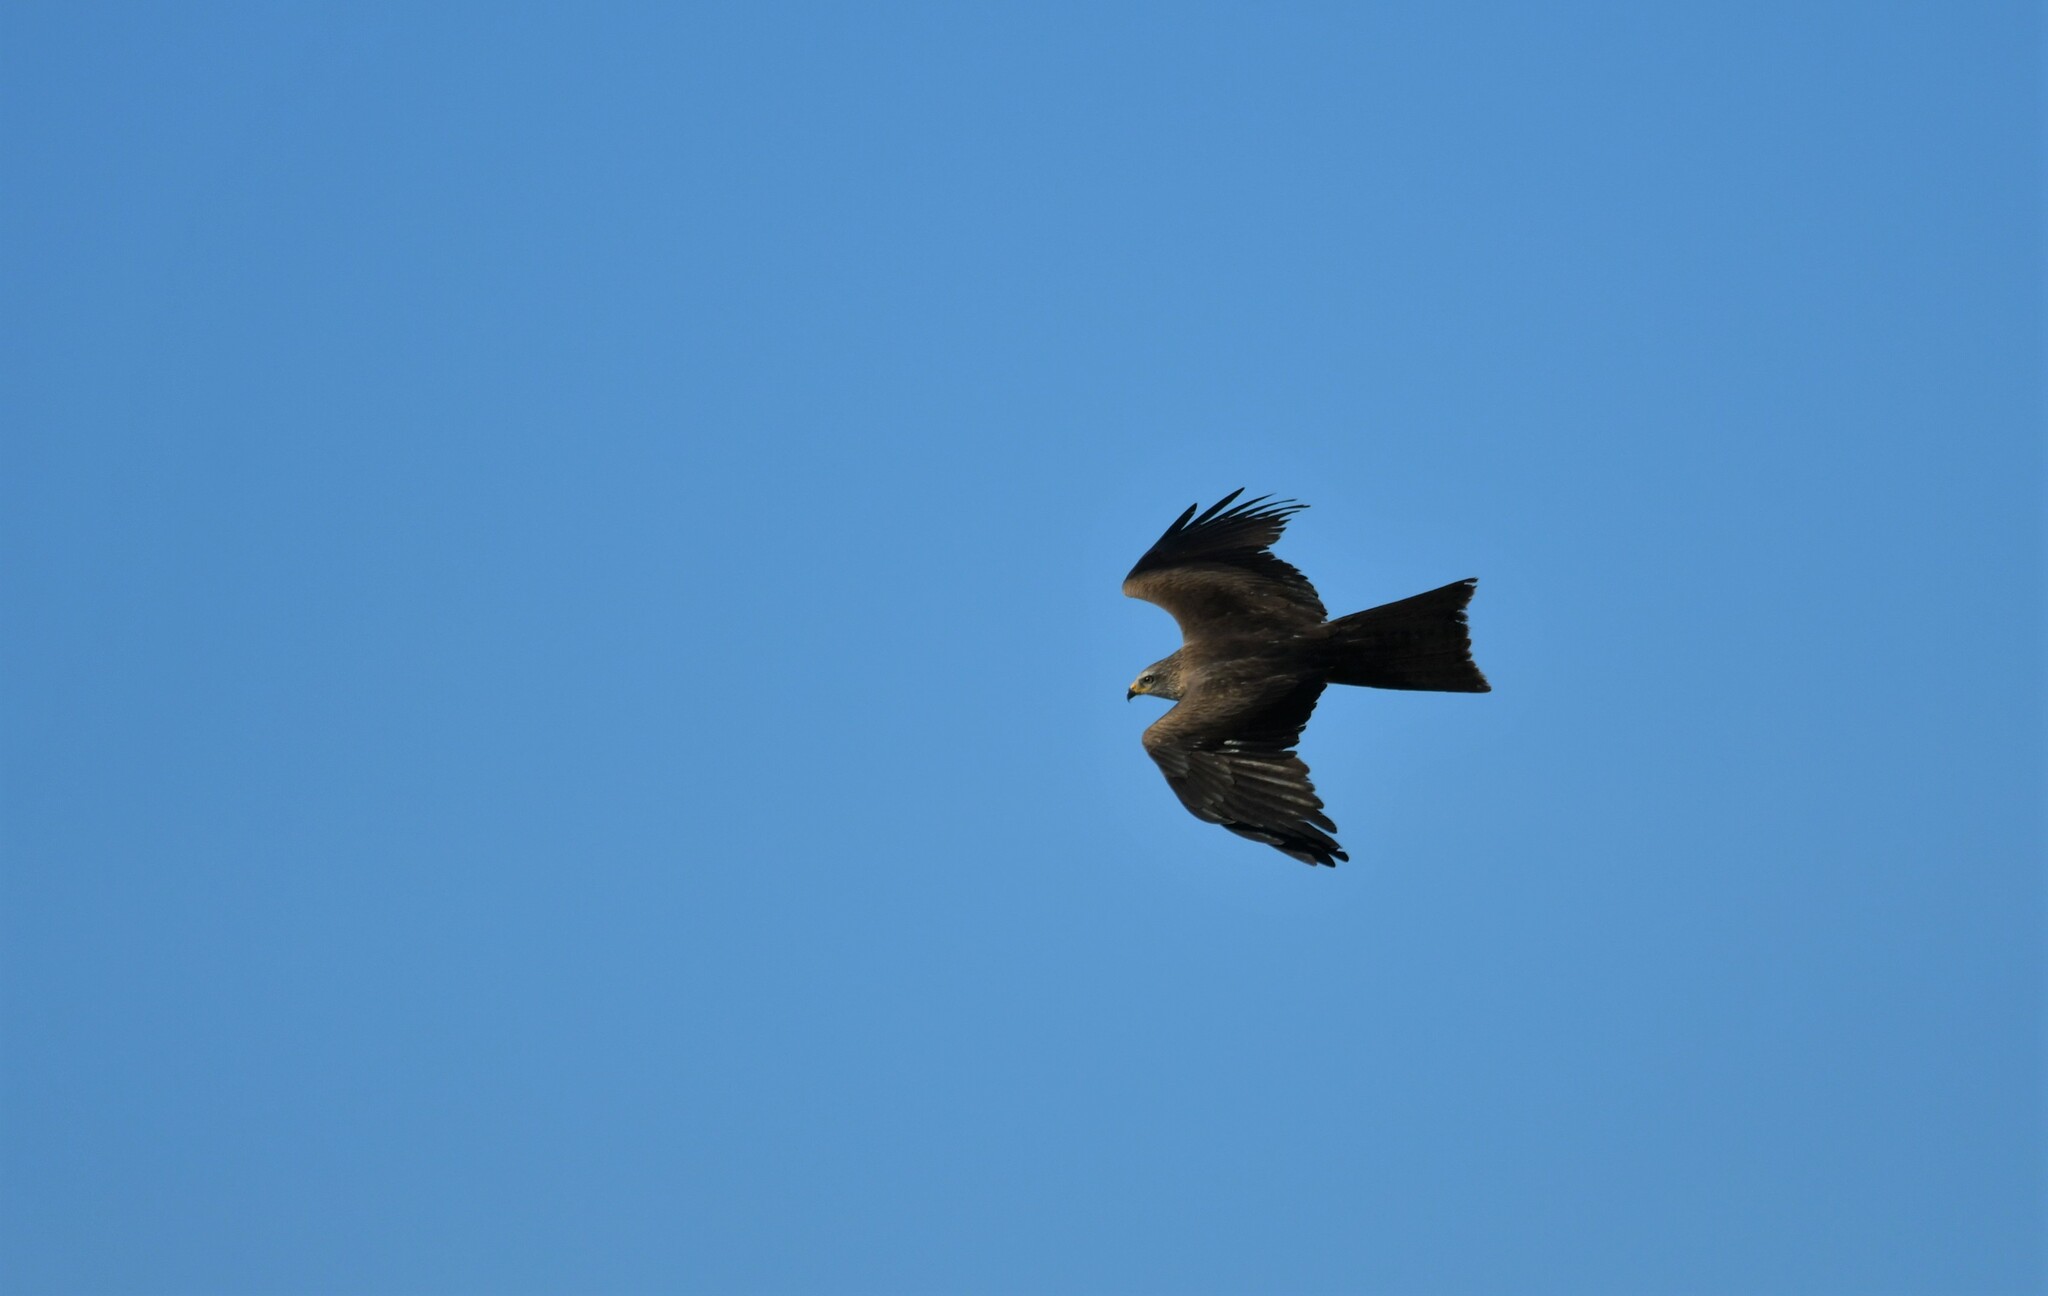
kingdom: Animalia
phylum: Chordata
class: Aves
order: Accipitriformes
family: Accipitridae
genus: Milvus
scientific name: Milvus migrans
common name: Black kite
